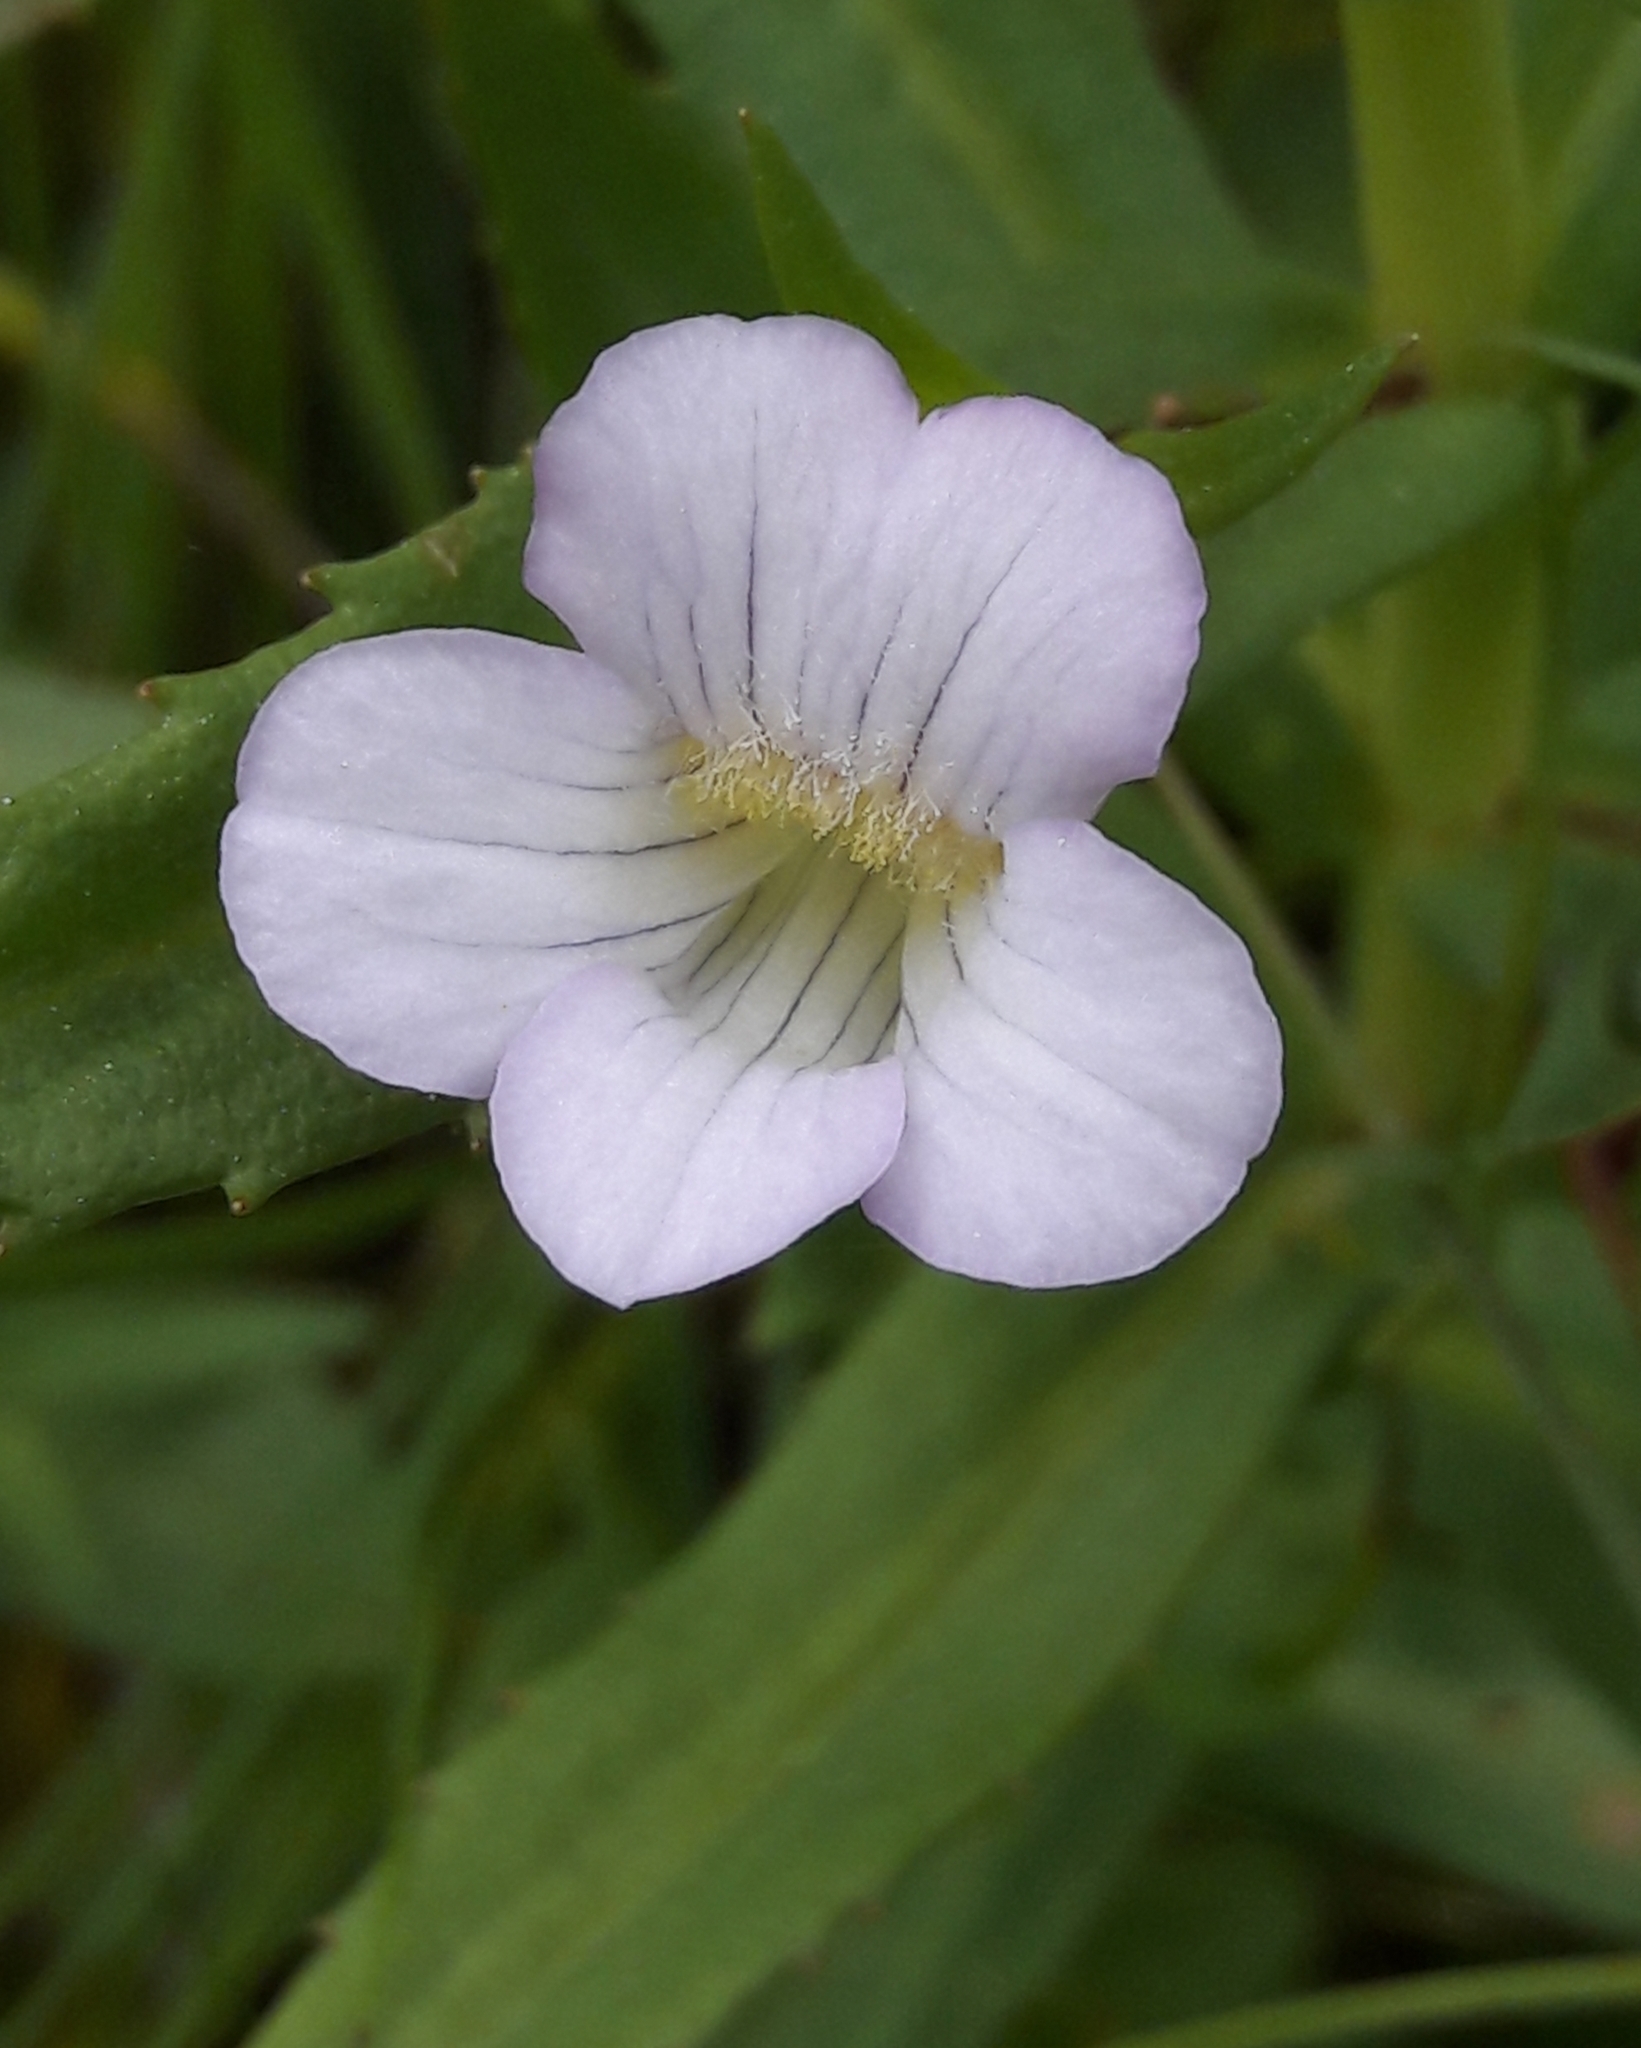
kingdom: Plantae
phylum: Tracheophyta
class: Magnoliopsida
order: Lamiales
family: Plantaginaceae
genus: Gratiola
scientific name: Gratiola officinalis
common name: Gratiola
